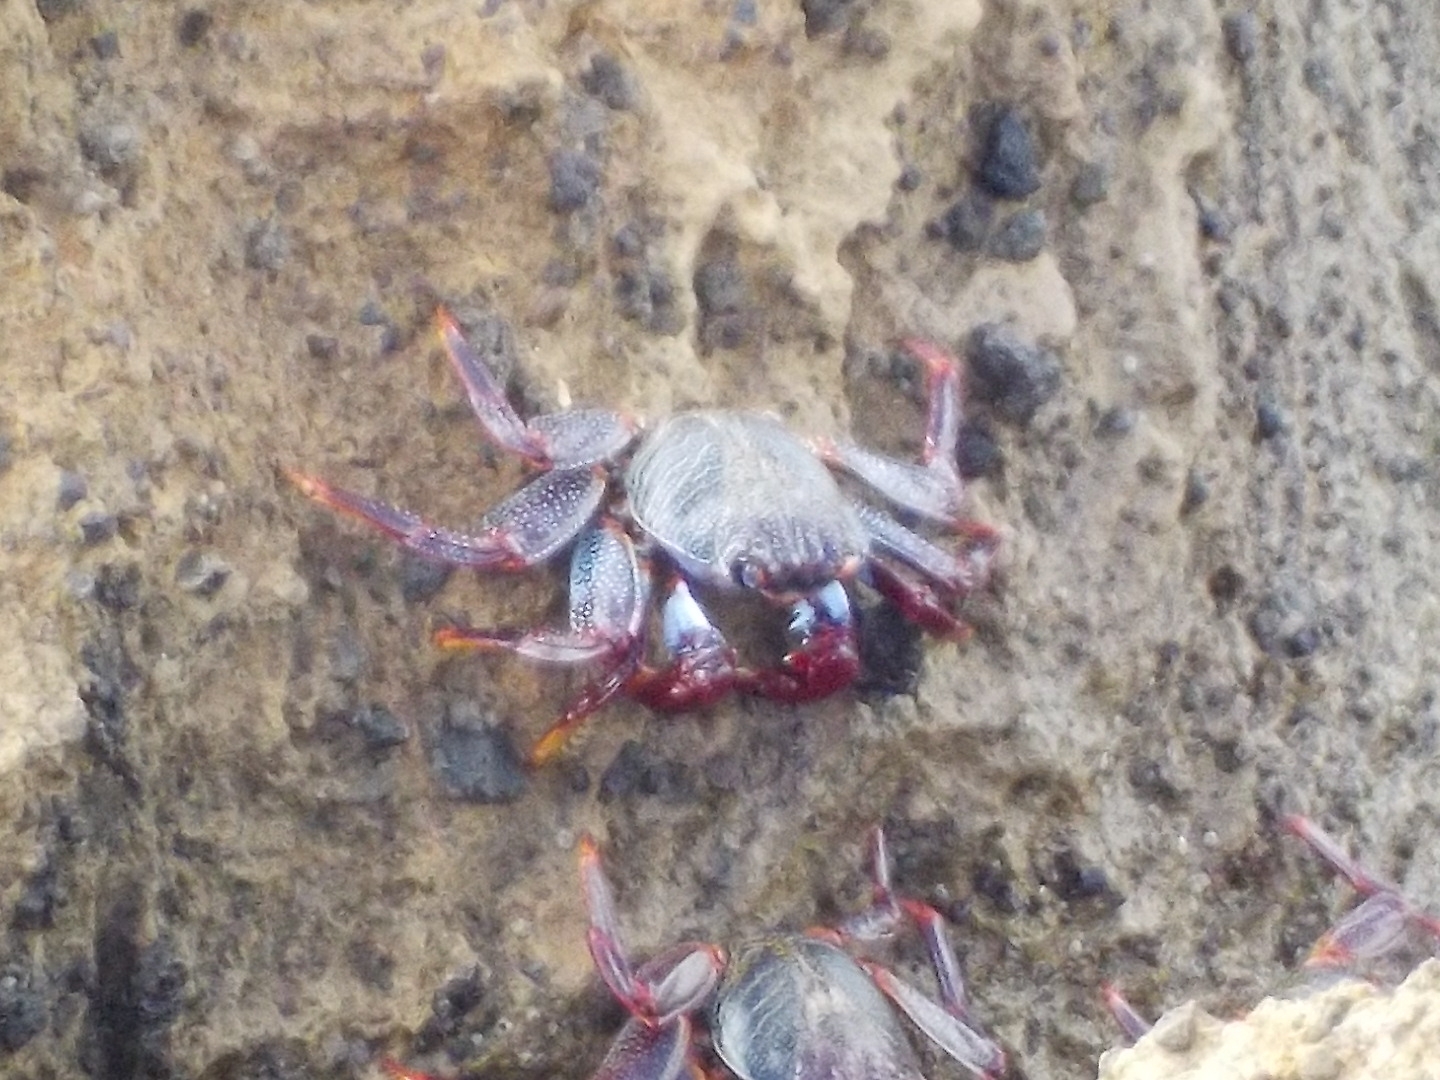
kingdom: Animalia
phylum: Arthropoda
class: Malacostraca
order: Decapoda
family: Grapsidae
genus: Grapsus
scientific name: Grapsus adscensionis
